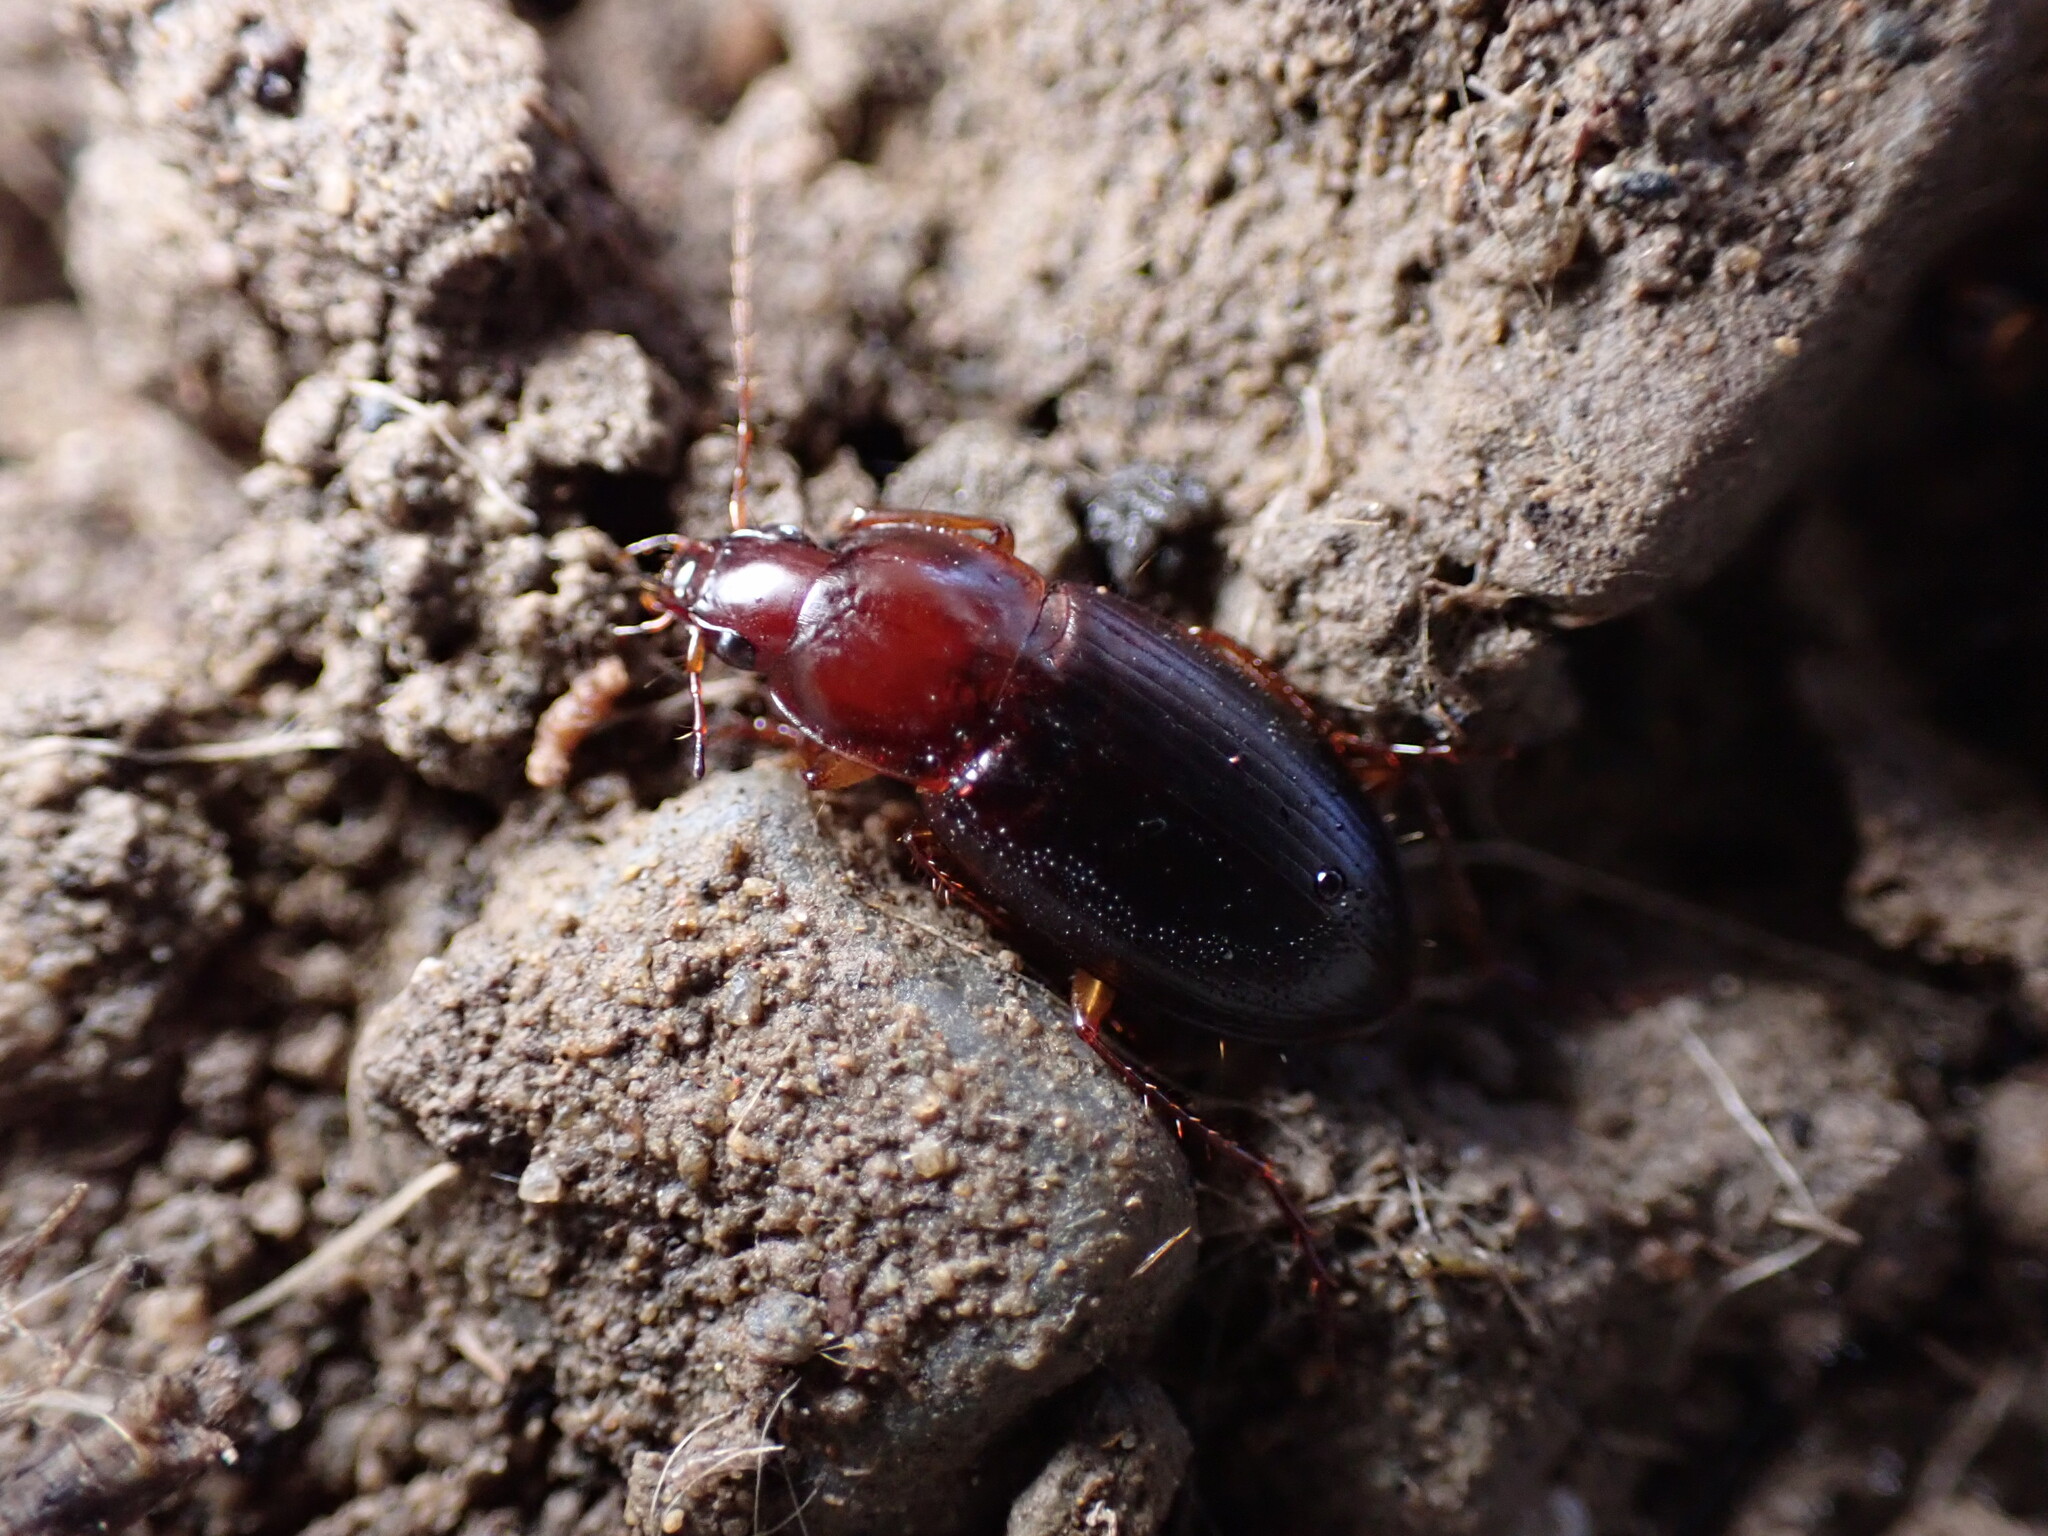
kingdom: Animalia
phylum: Arthropoda
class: Insecta
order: Coleoptera
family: Carabidae
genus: Calathus
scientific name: Calathus ruficollis
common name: Red-collared harp ground beetle
